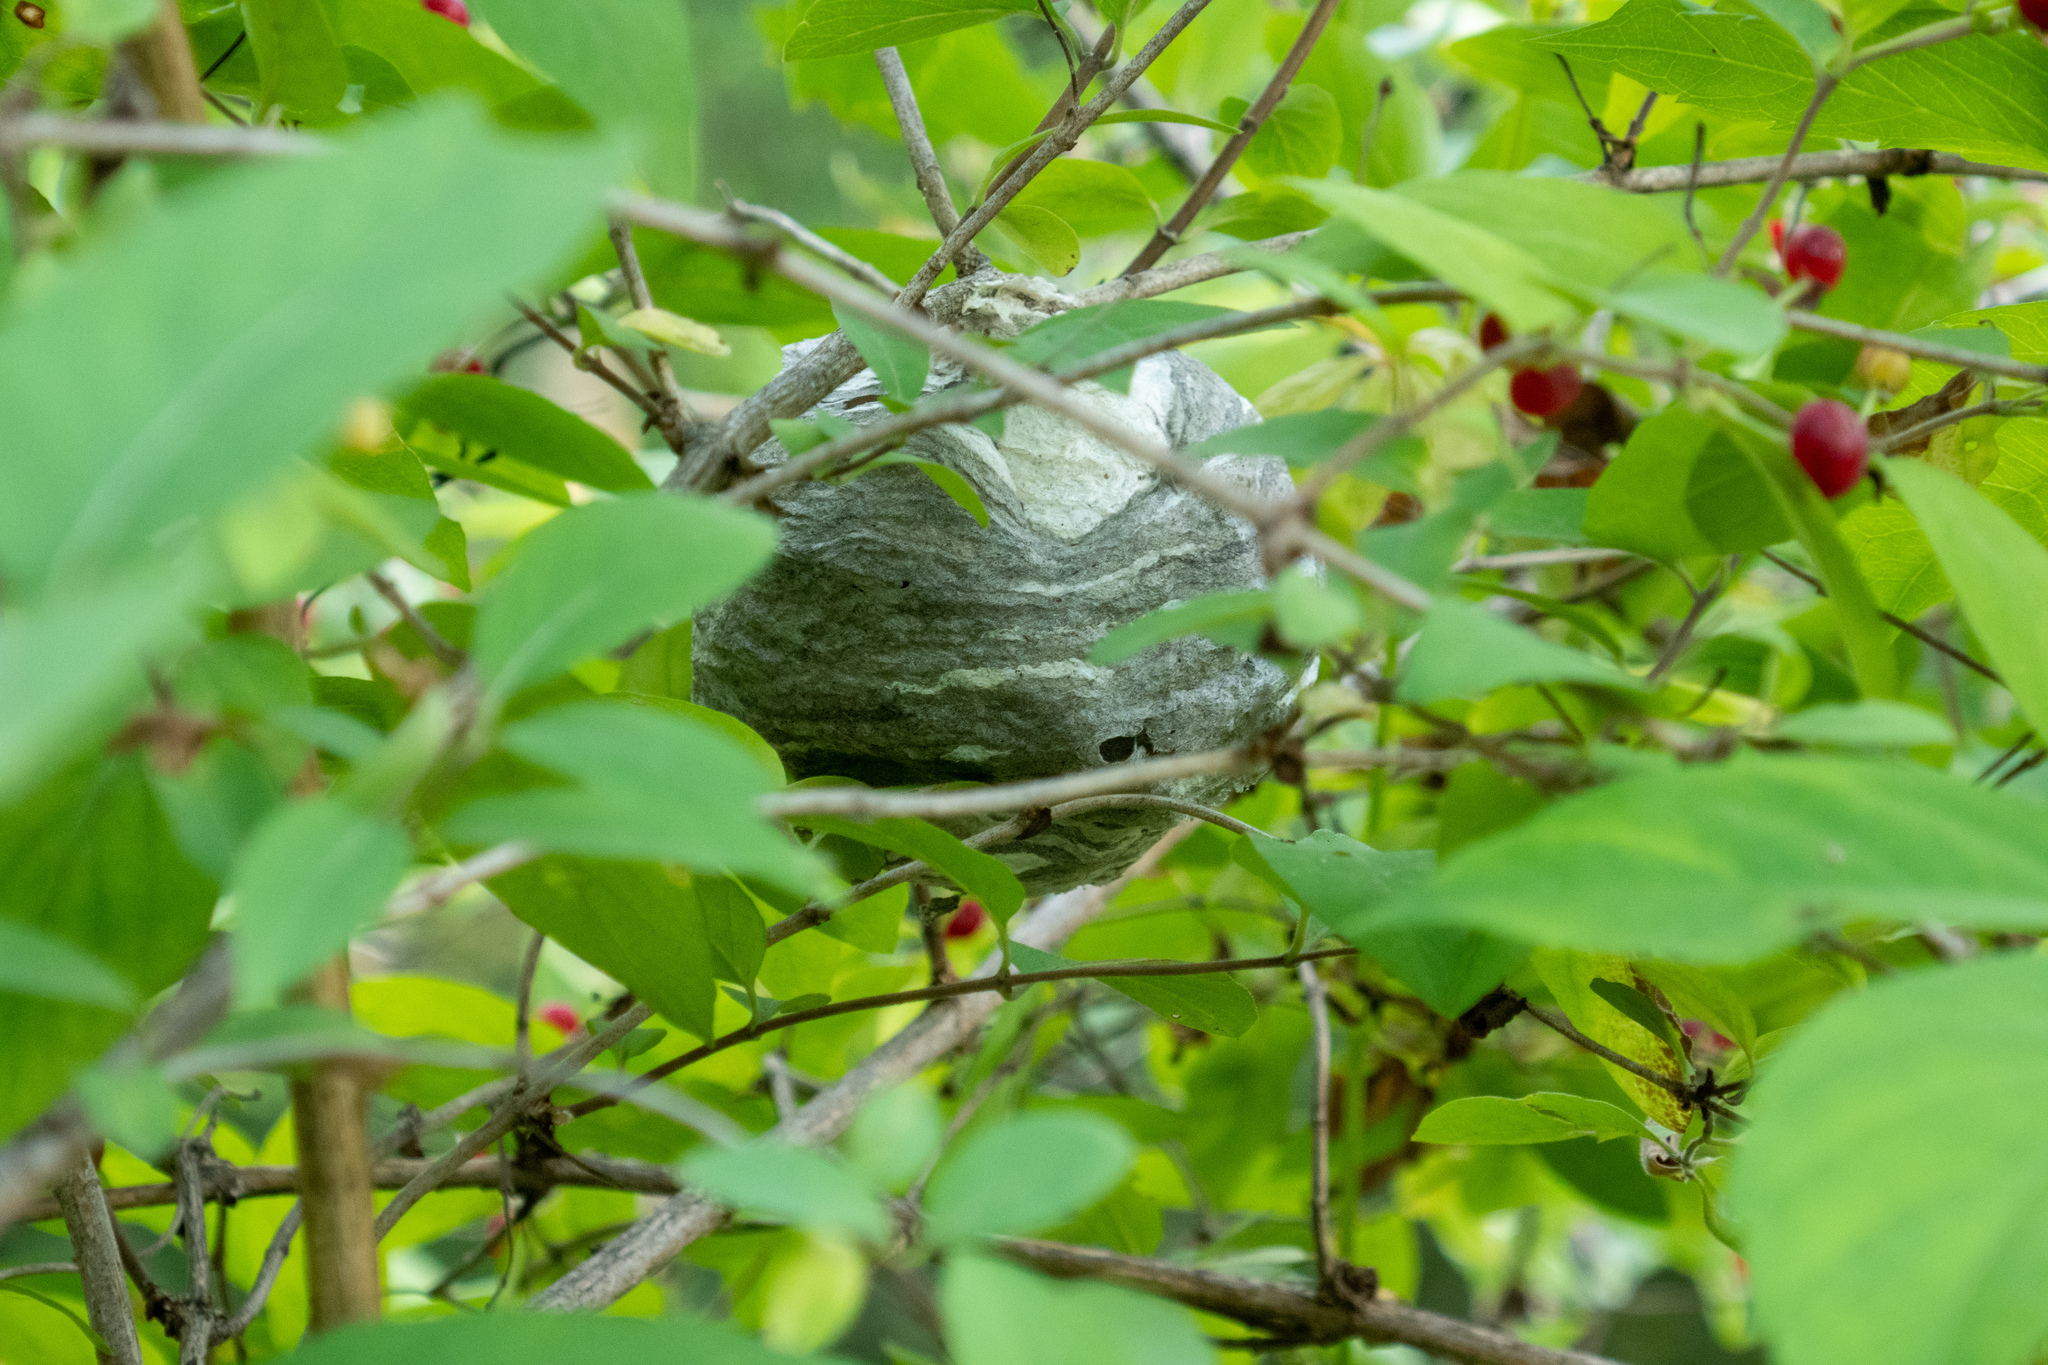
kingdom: Animalia
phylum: Arthropoda
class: Insecta
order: Hymenoptera
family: Vespidae
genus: Dolichovespula
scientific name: Dolichovespula
